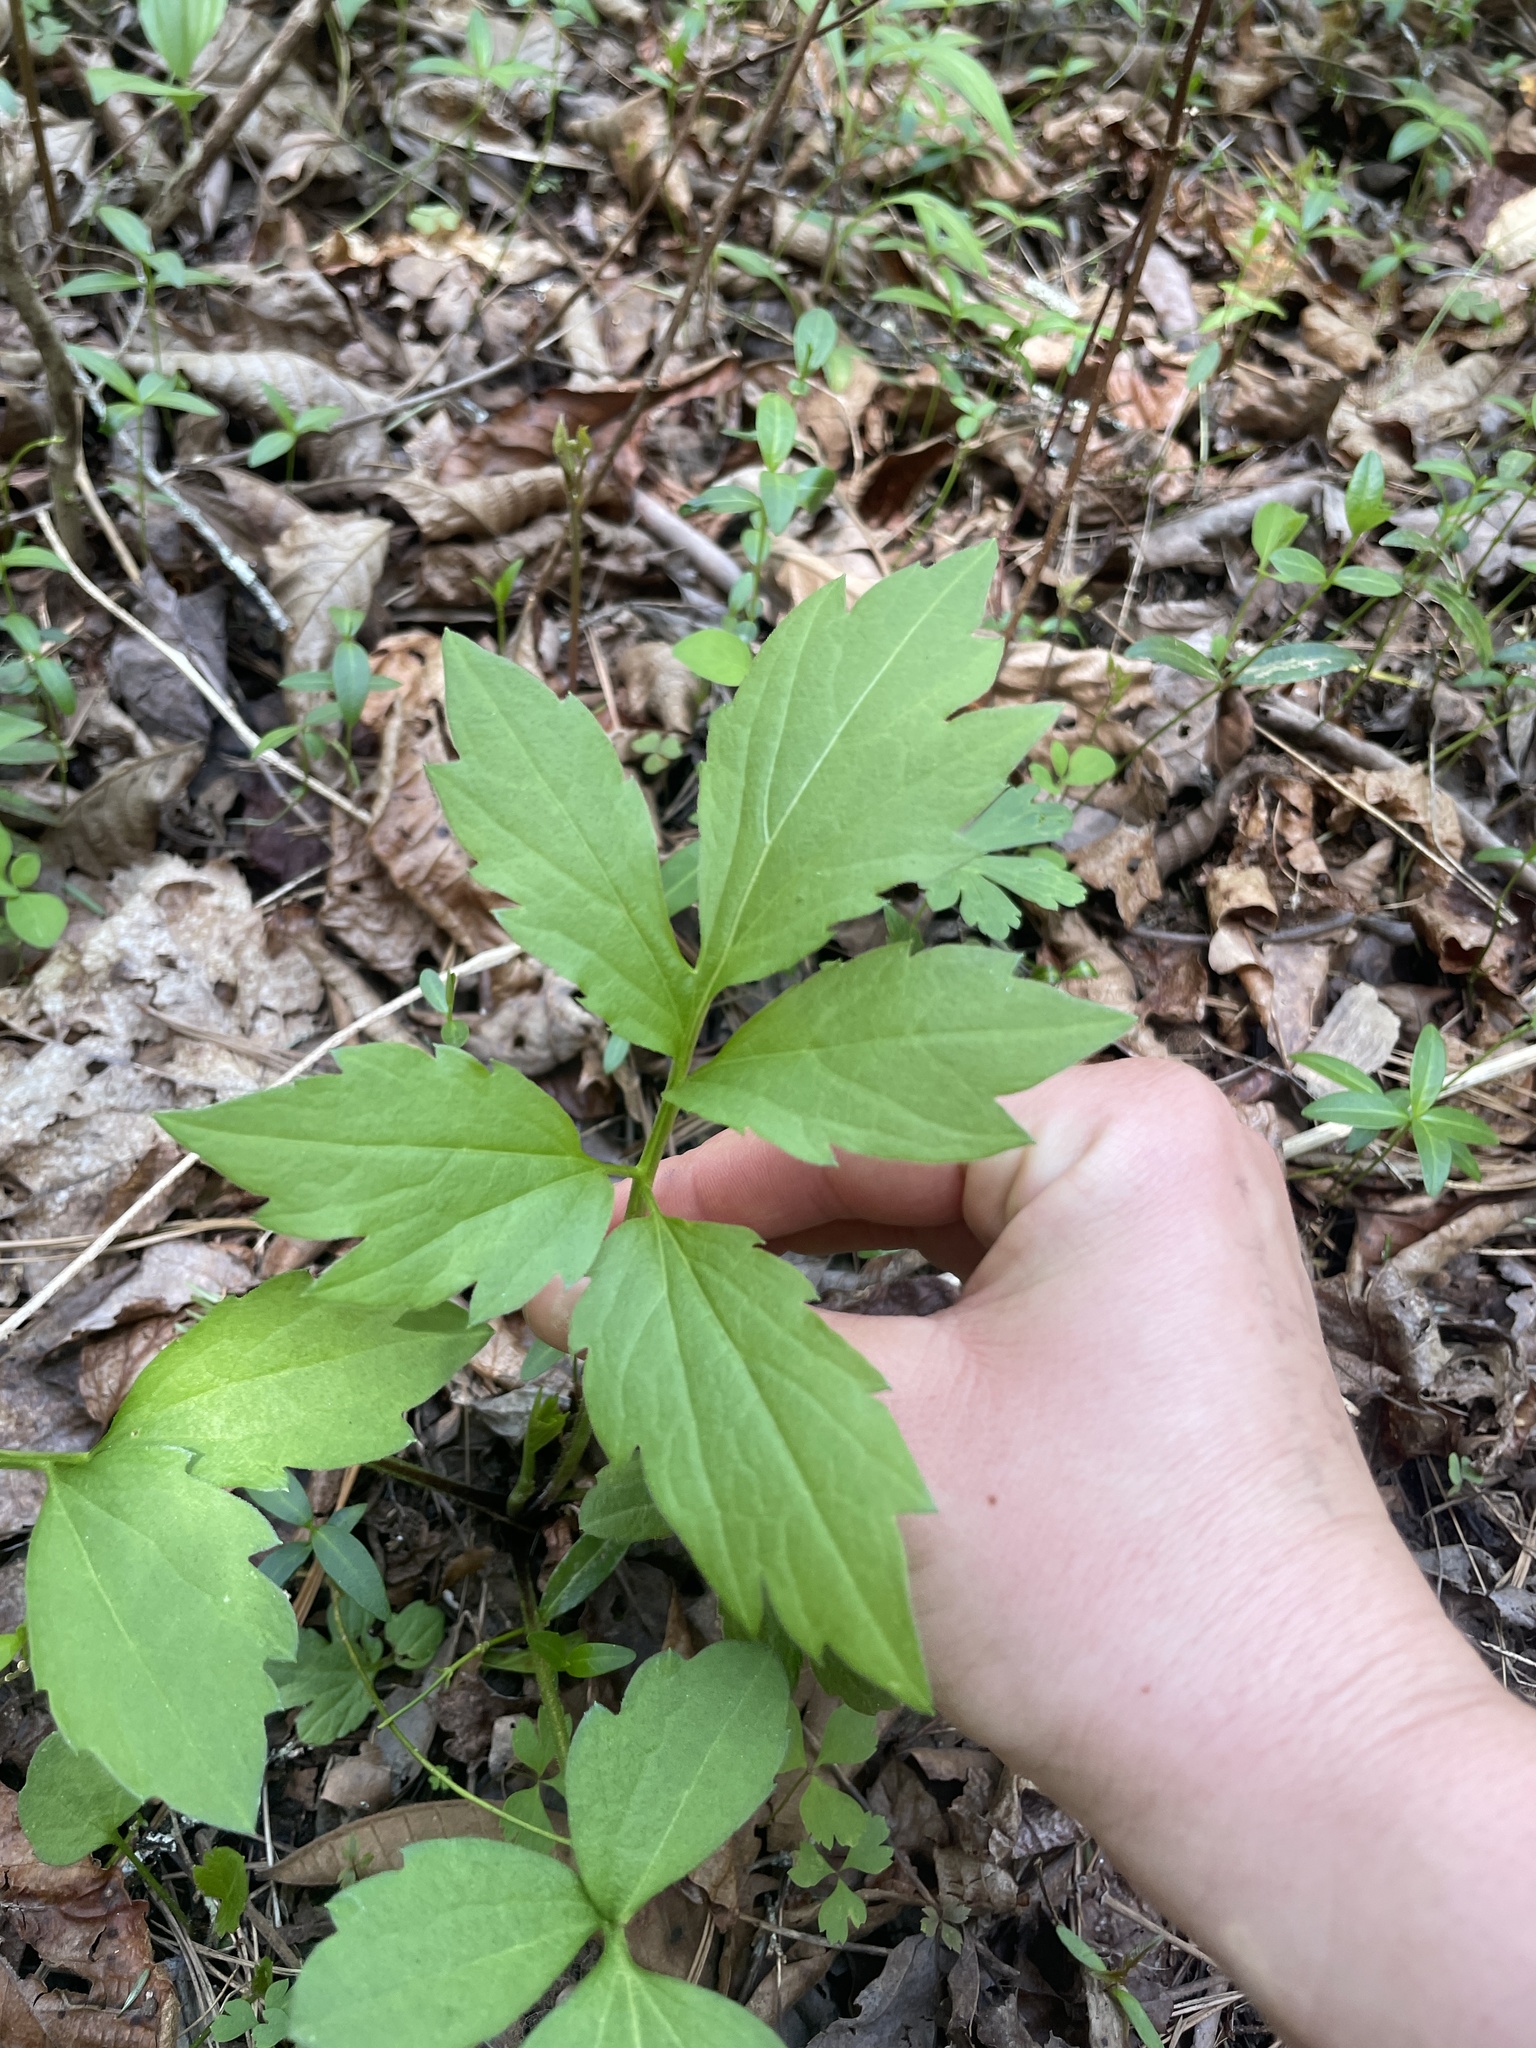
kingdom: Plantae
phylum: Tracheophyta
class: Magnoliopsida
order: Asterales
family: Asteraceae
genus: Rudbeckia
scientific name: Rudbeckia laciniata
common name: Coneflower
